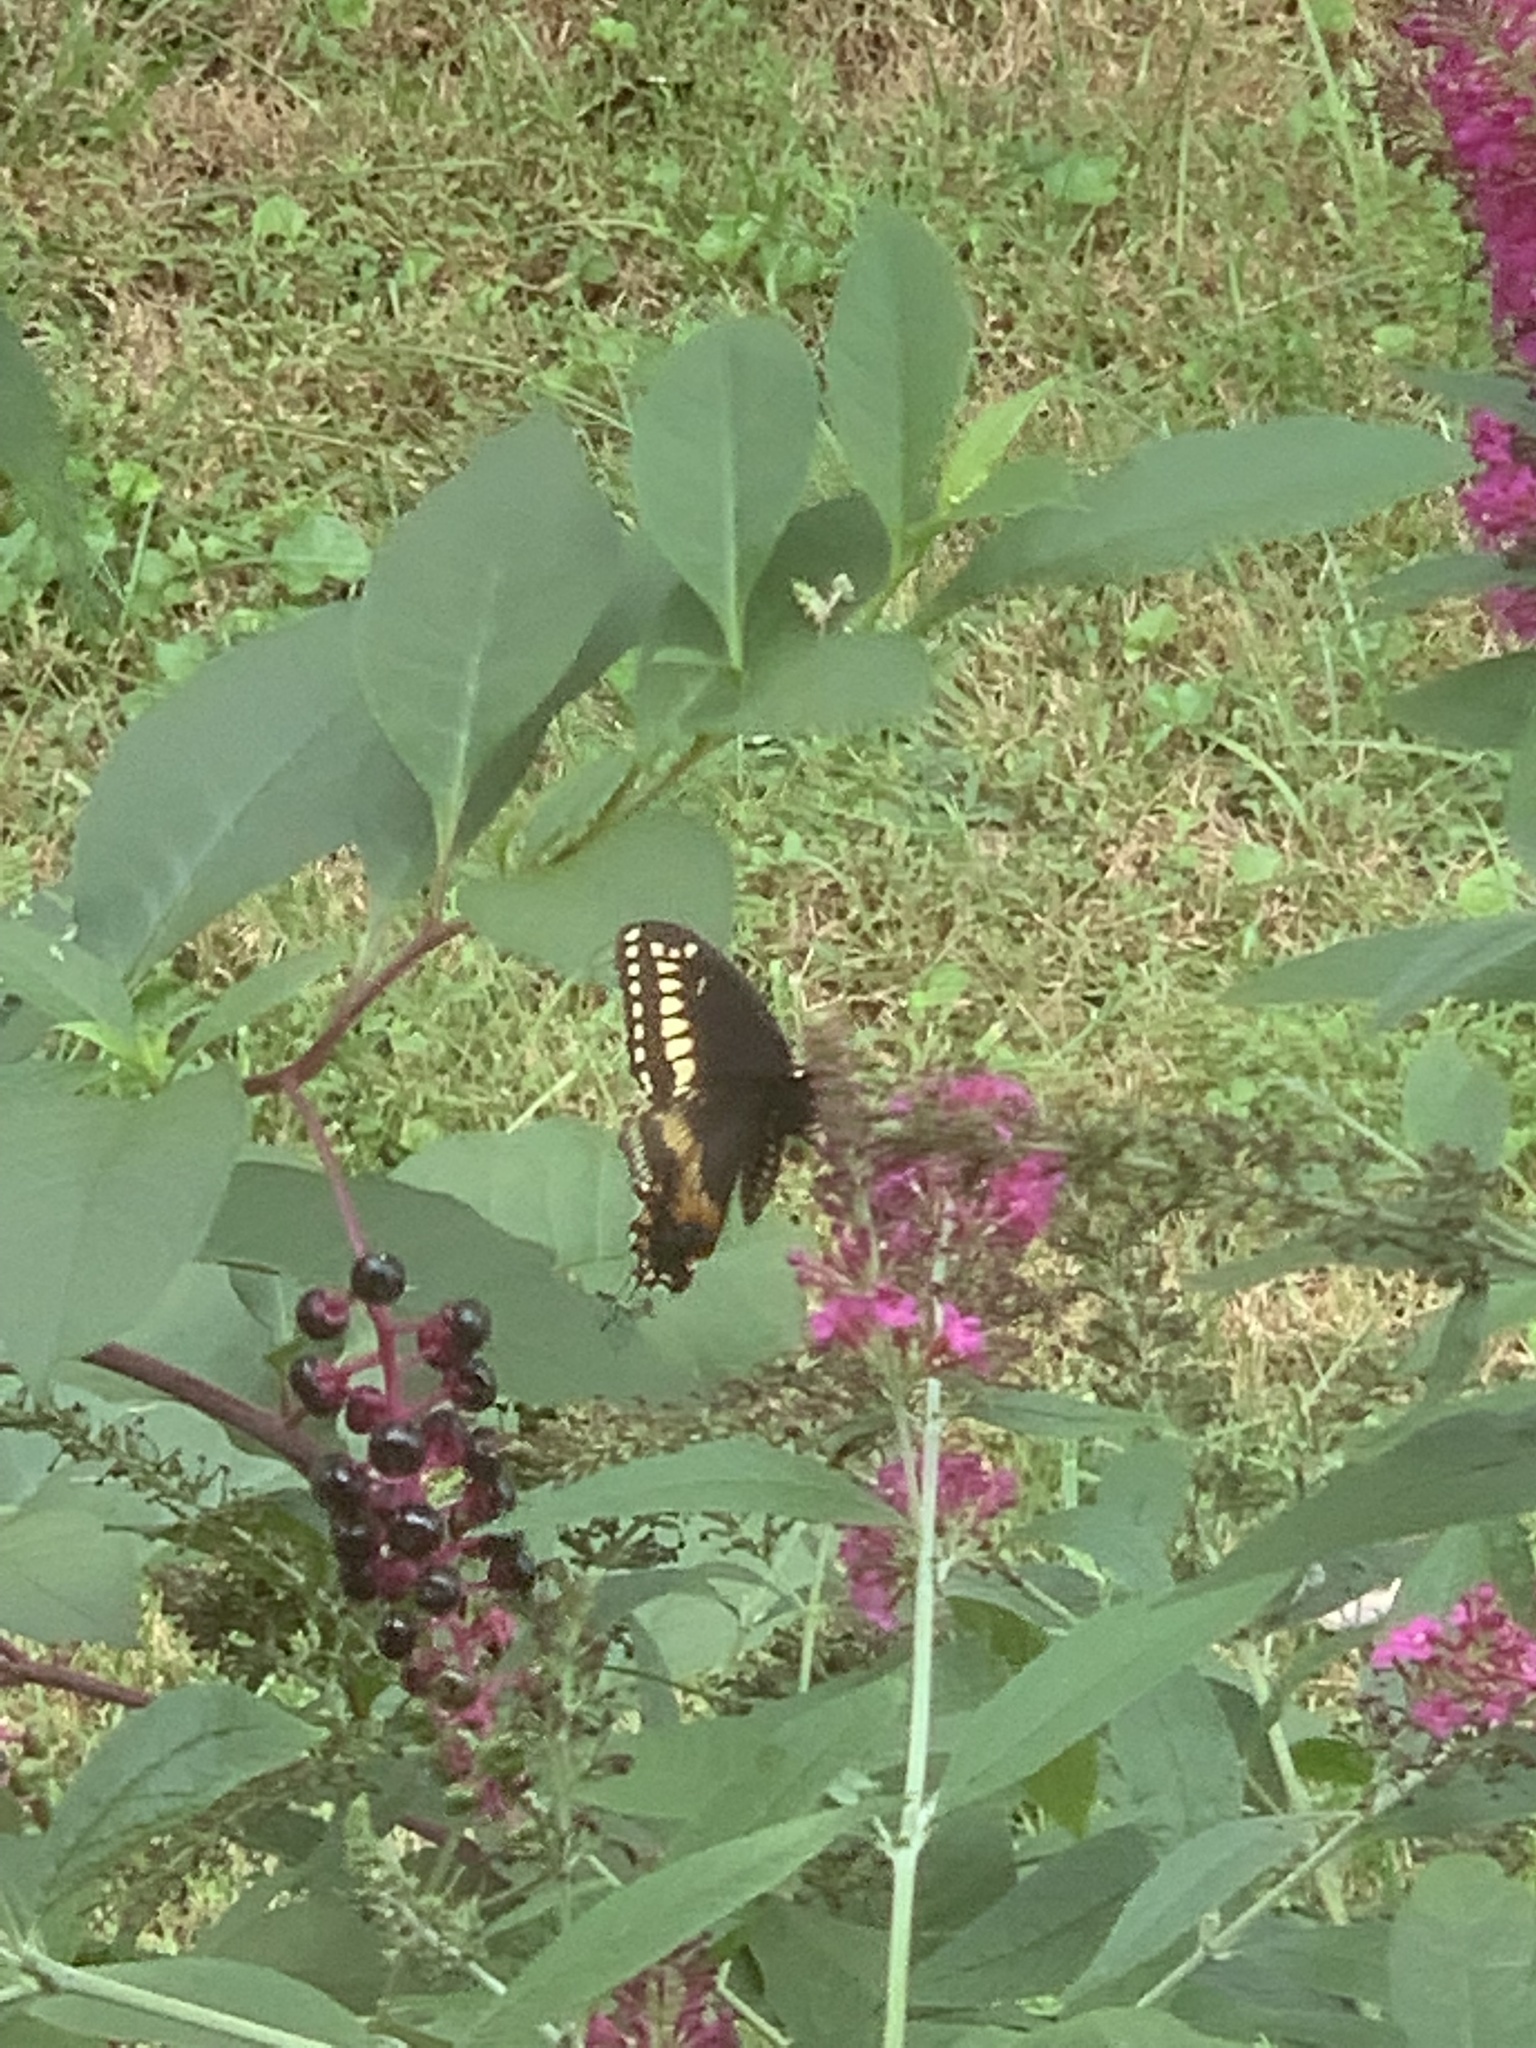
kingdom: Animalia
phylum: Arthropoda
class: Insecta
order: Lepidoptera
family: Papilionidae
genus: Papilio
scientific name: Papilio polyxenes
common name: Black swallowtail
